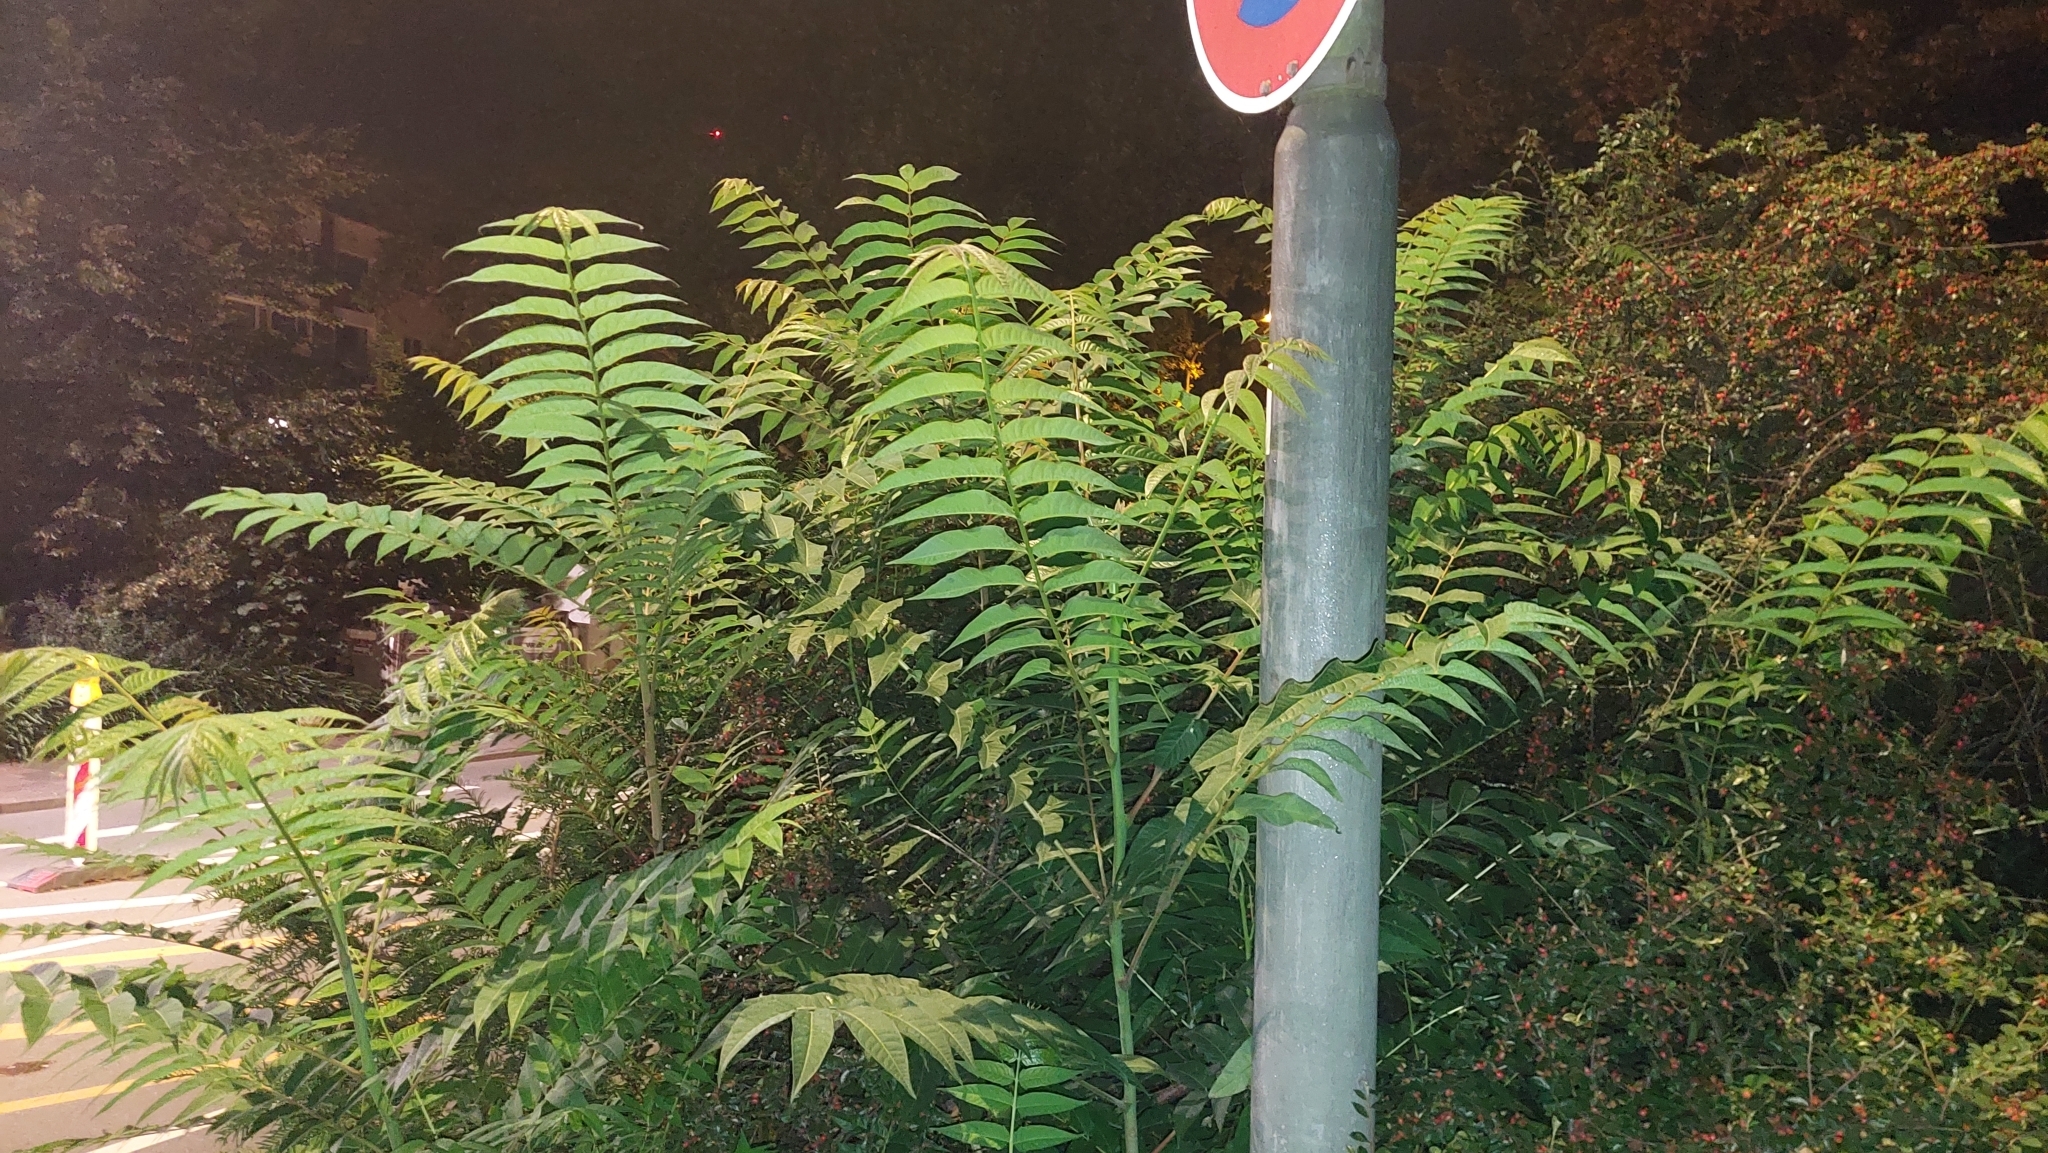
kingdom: Plantae
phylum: Tracheophyta
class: Magnoliopsida
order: Sapindales
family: Simaroubaceae
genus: Ailanthus
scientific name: Ailanthus altissima
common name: Tree-of-heaven
